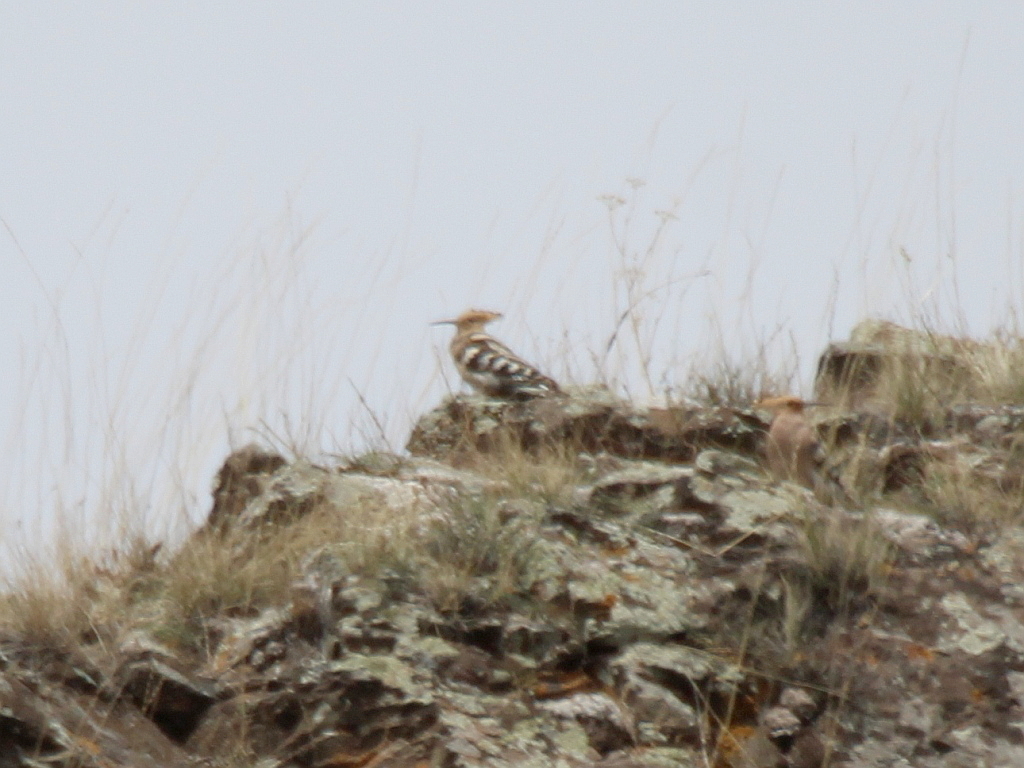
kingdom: Animalia
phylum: Chordata
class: Aves
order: Bucerotiformes
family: Upupidae
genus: Upupa
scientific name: Upupa epops
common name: Eurasian hoopoe
